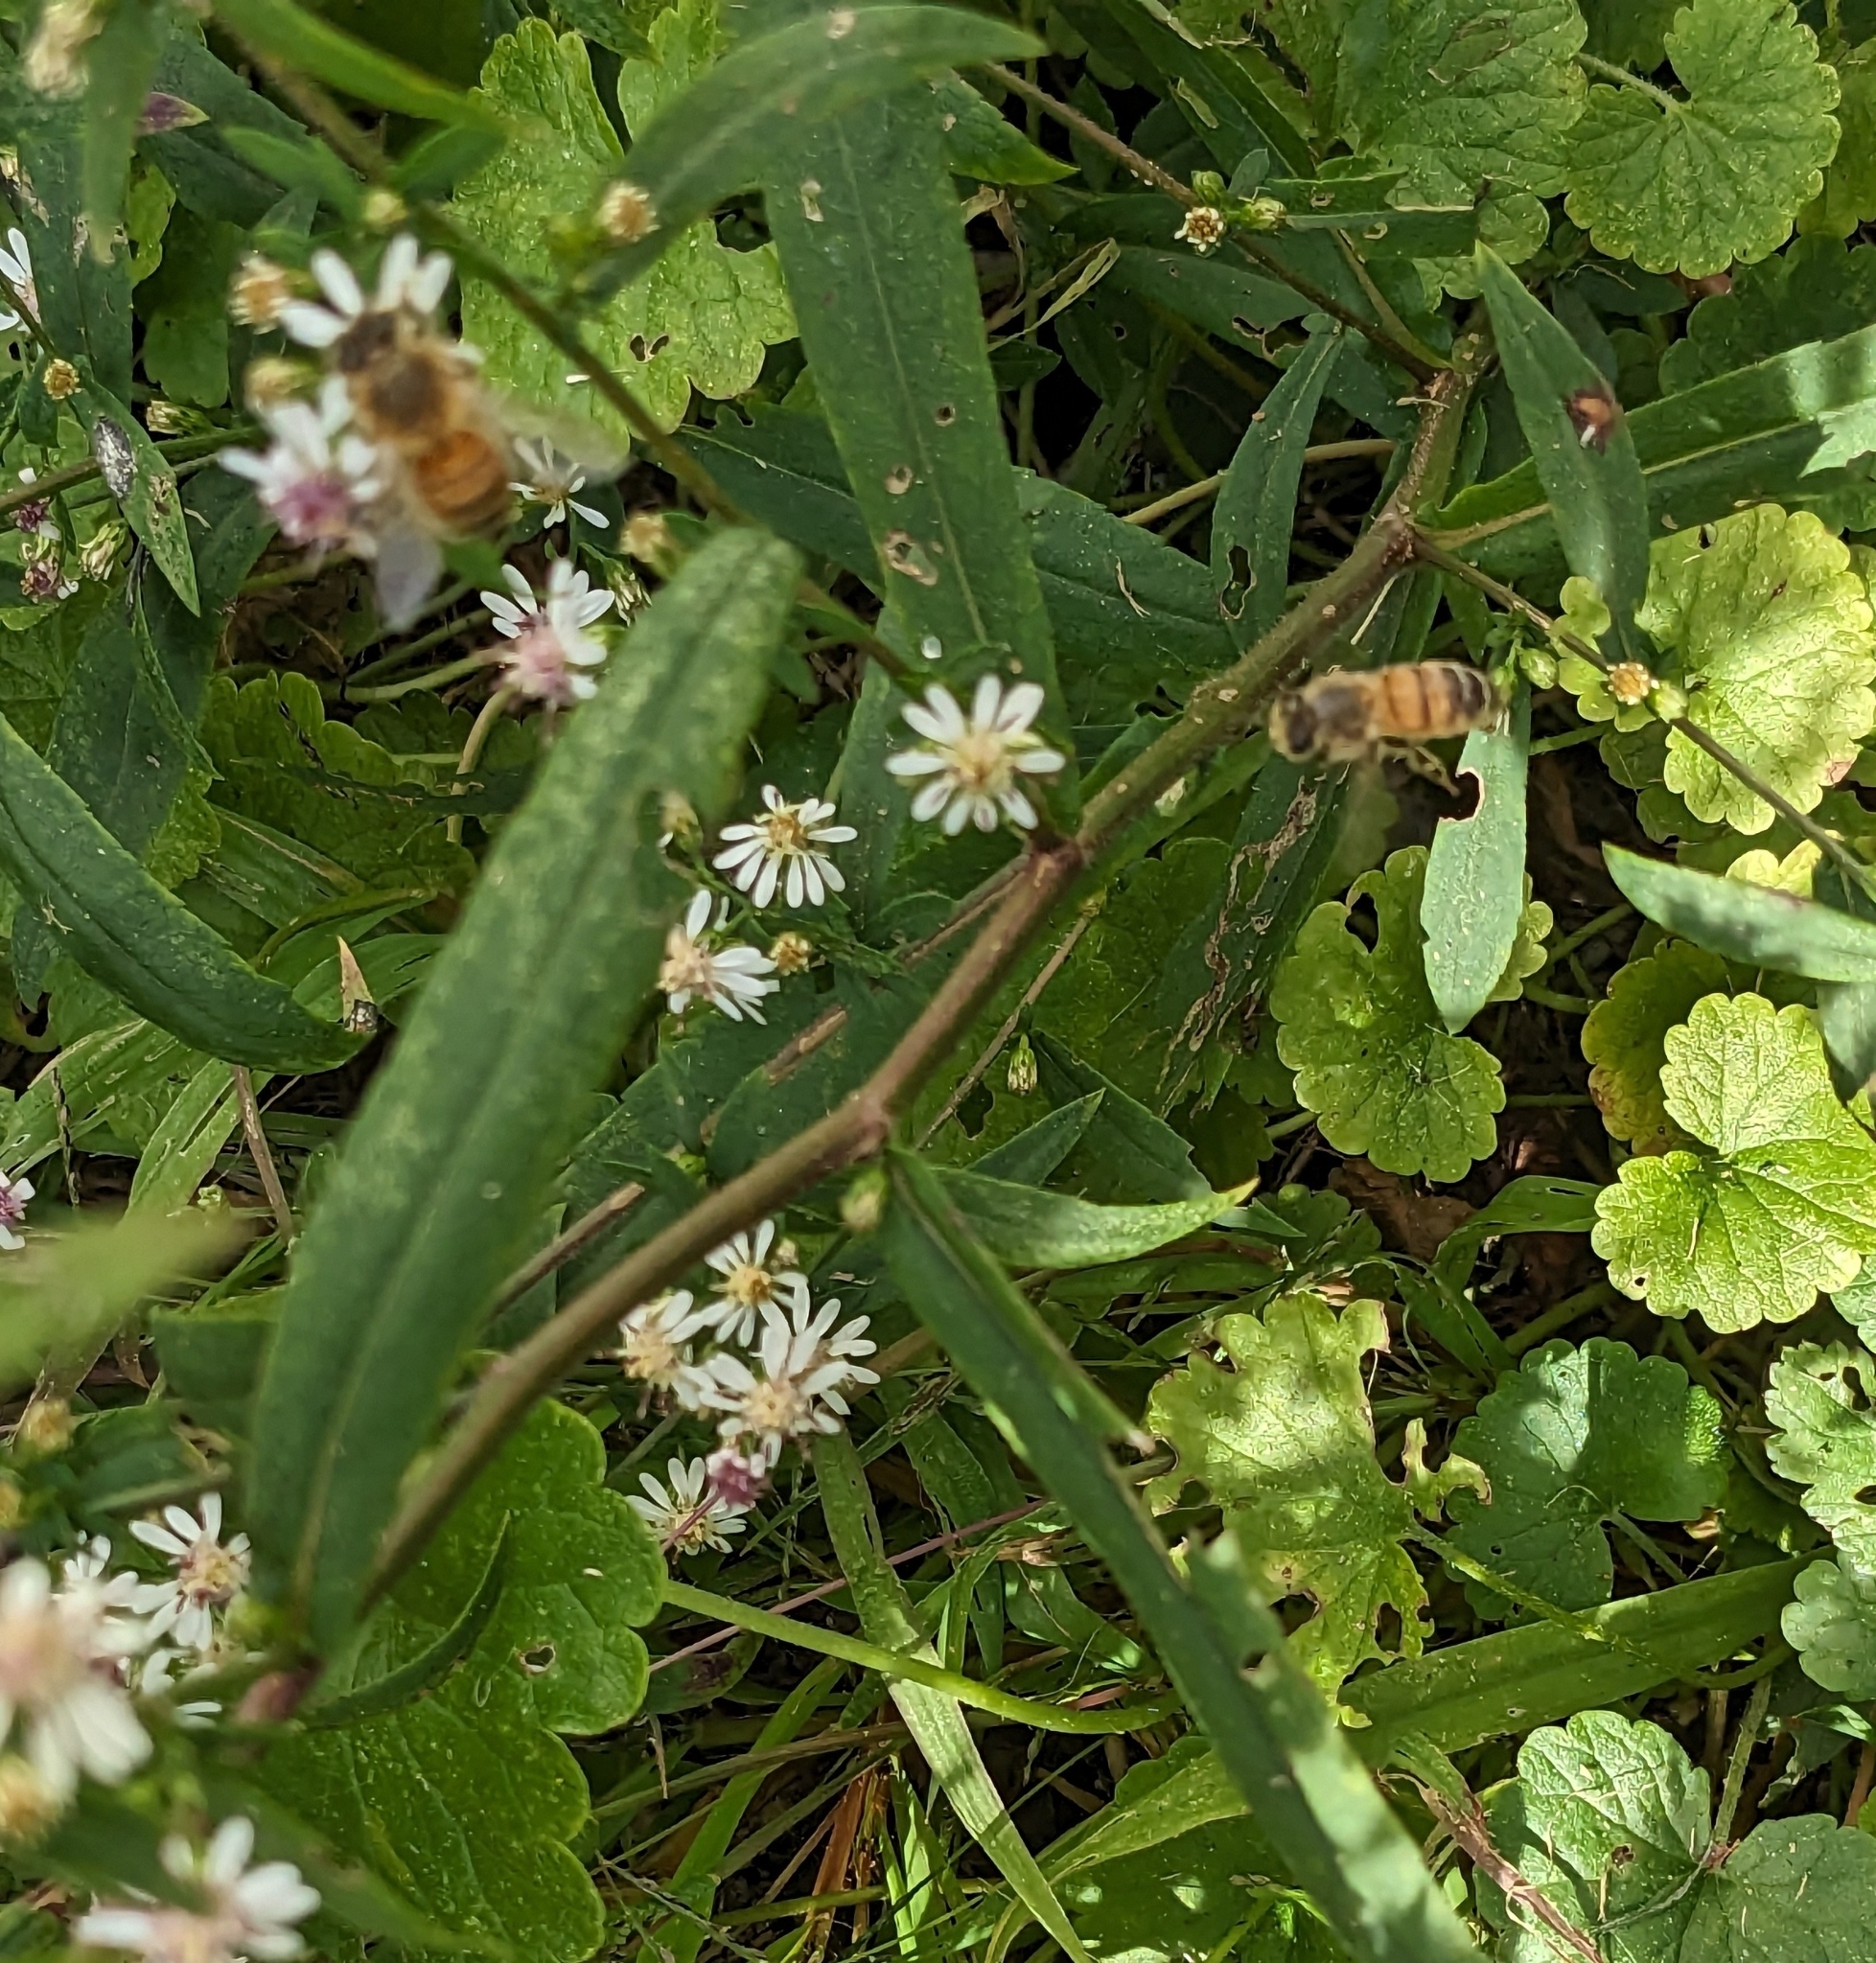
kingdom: Animalia
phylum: Arthropoda
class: Insecta
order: Hymenoptera
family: Apidae
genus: Apis
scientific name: Apis mellifera
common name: Honey bee
